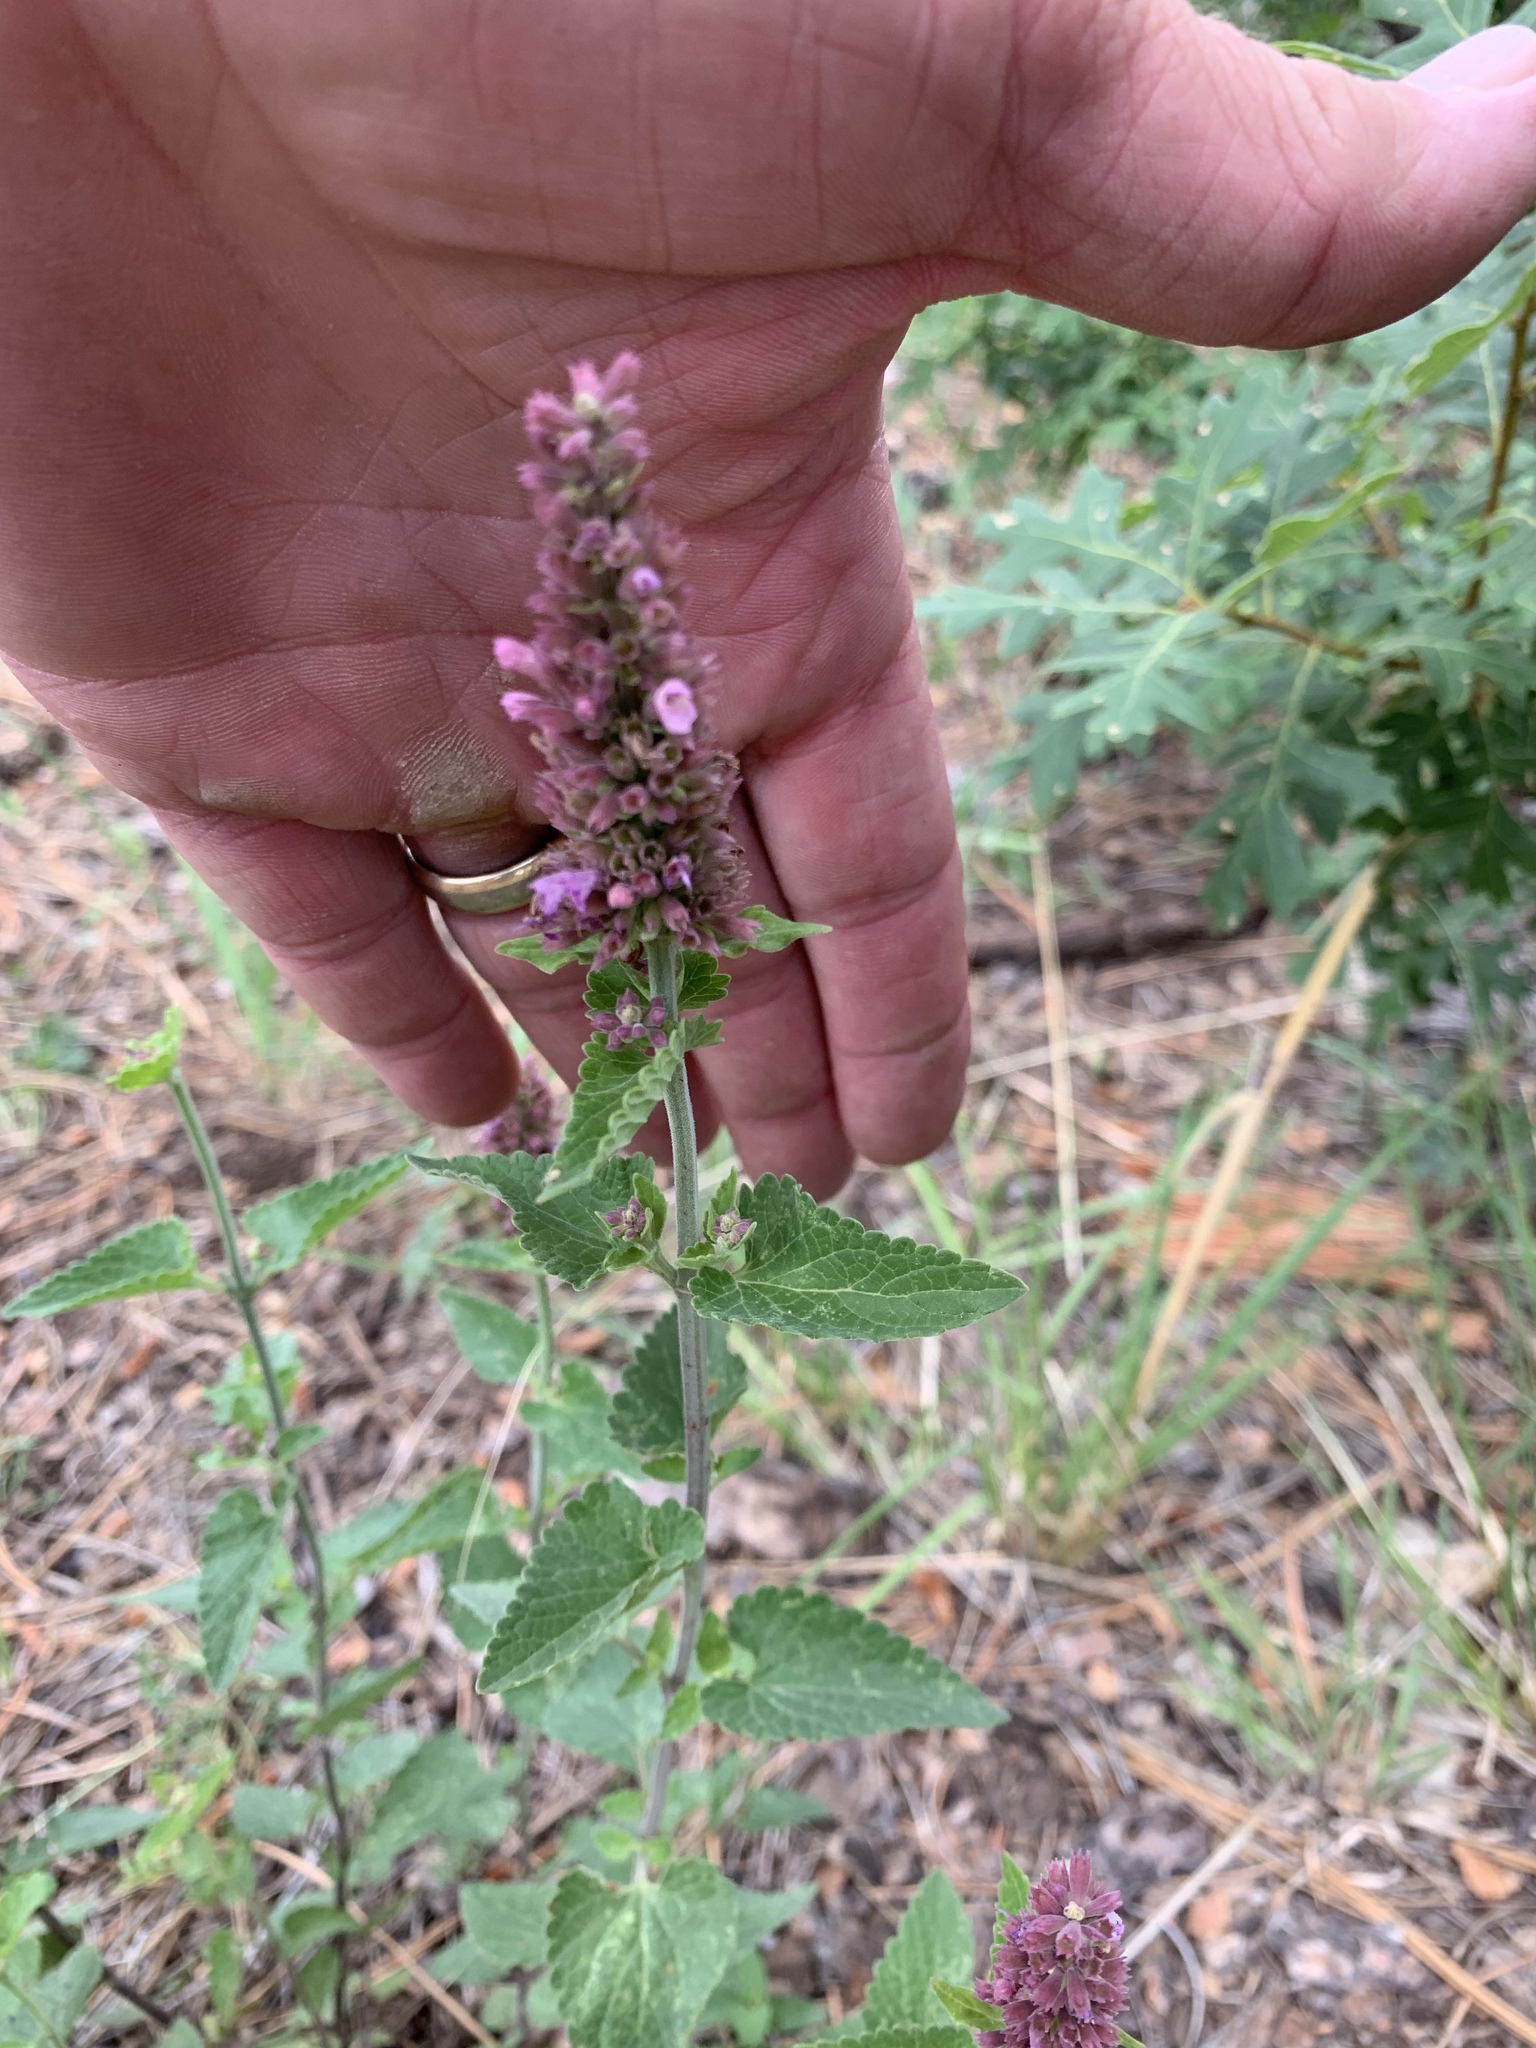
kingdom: Plantae
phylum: Tracheophyta
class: Magnoliopsida
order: Lamiales
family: Lamiaceae
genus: Agastache
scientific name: Agastache pallidiflora
